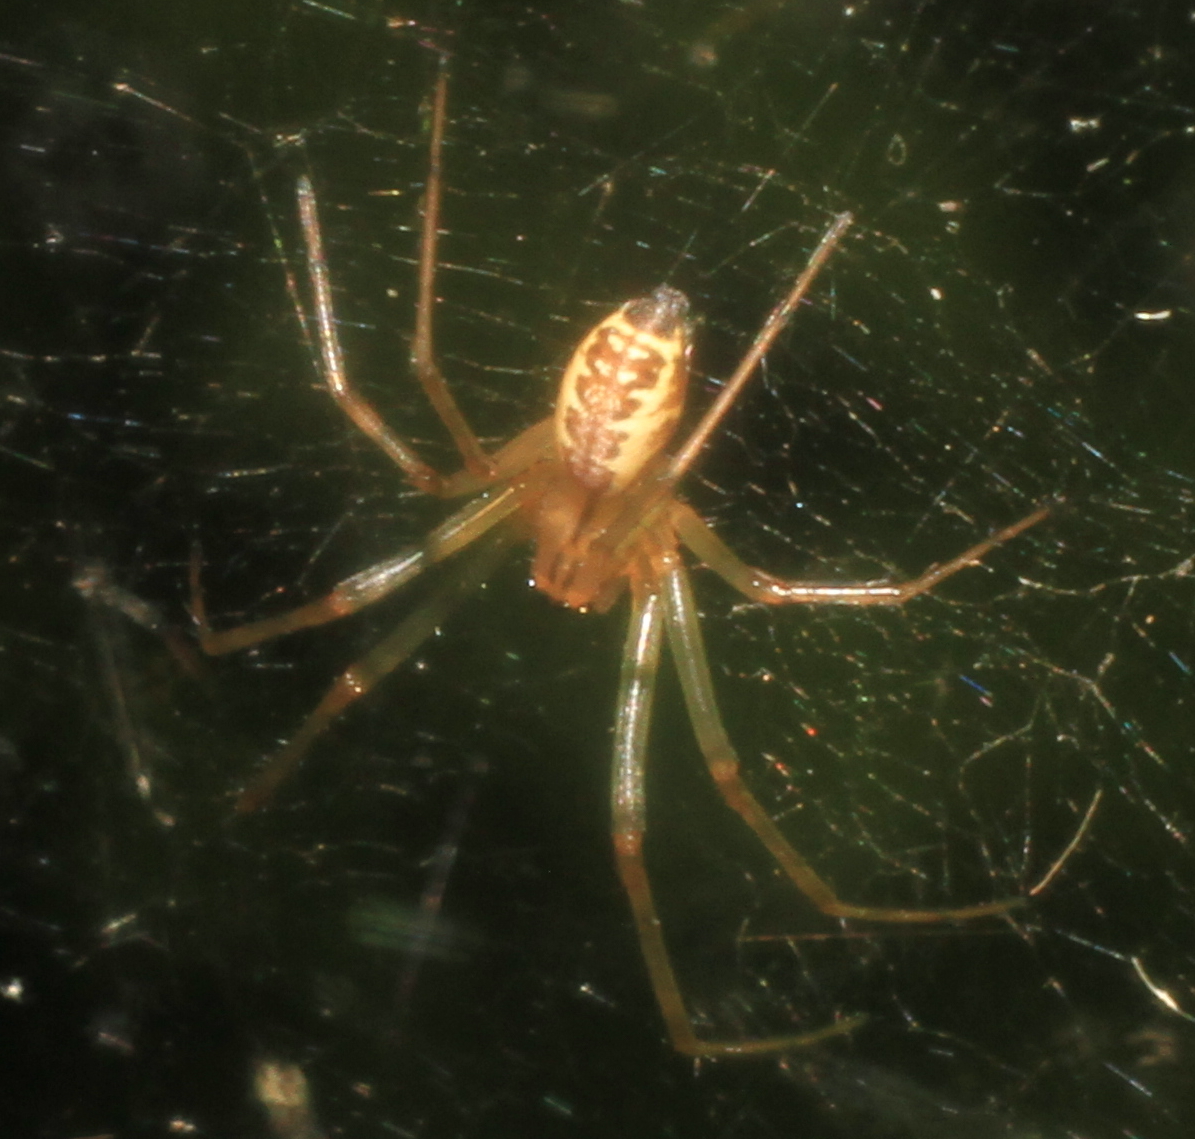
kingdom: Animalia
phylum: Arthropoda
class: Arachnida
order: Araneae
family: Linyphiidae
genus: Linyphia
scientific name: Linyphia triangularis
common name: Money spider
